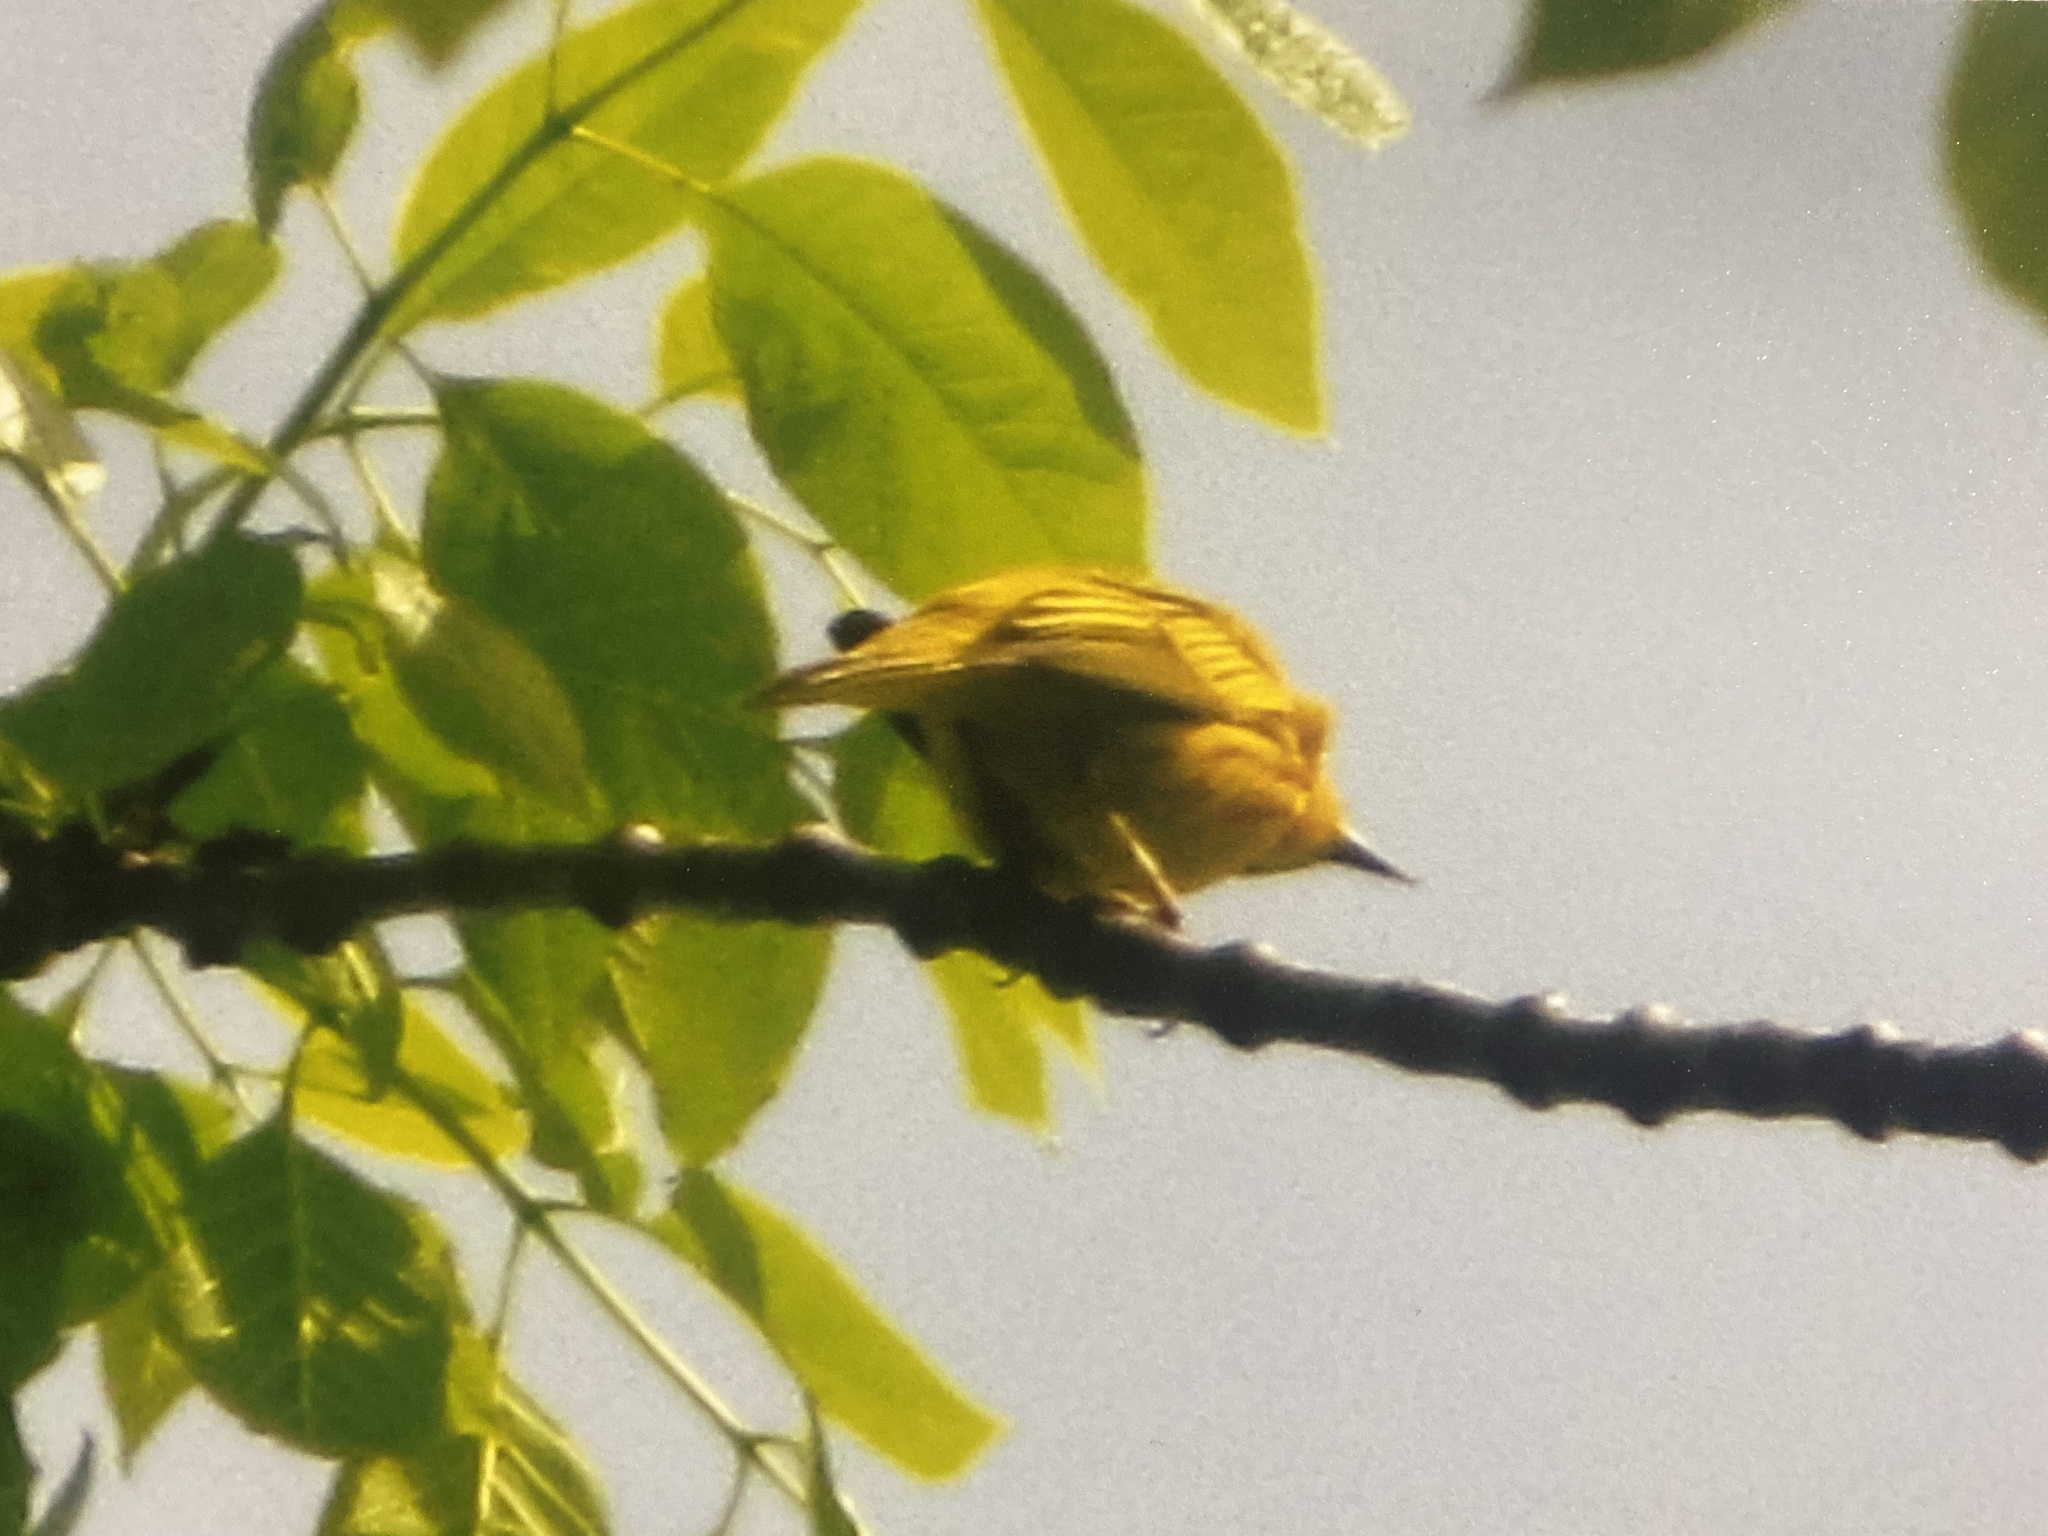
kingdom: Animalia
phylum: Chordata
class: Aves
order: Passeriformes
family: Parulidae
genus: Setophaga
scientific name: Setophaga petechia
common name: Yellow warbler
